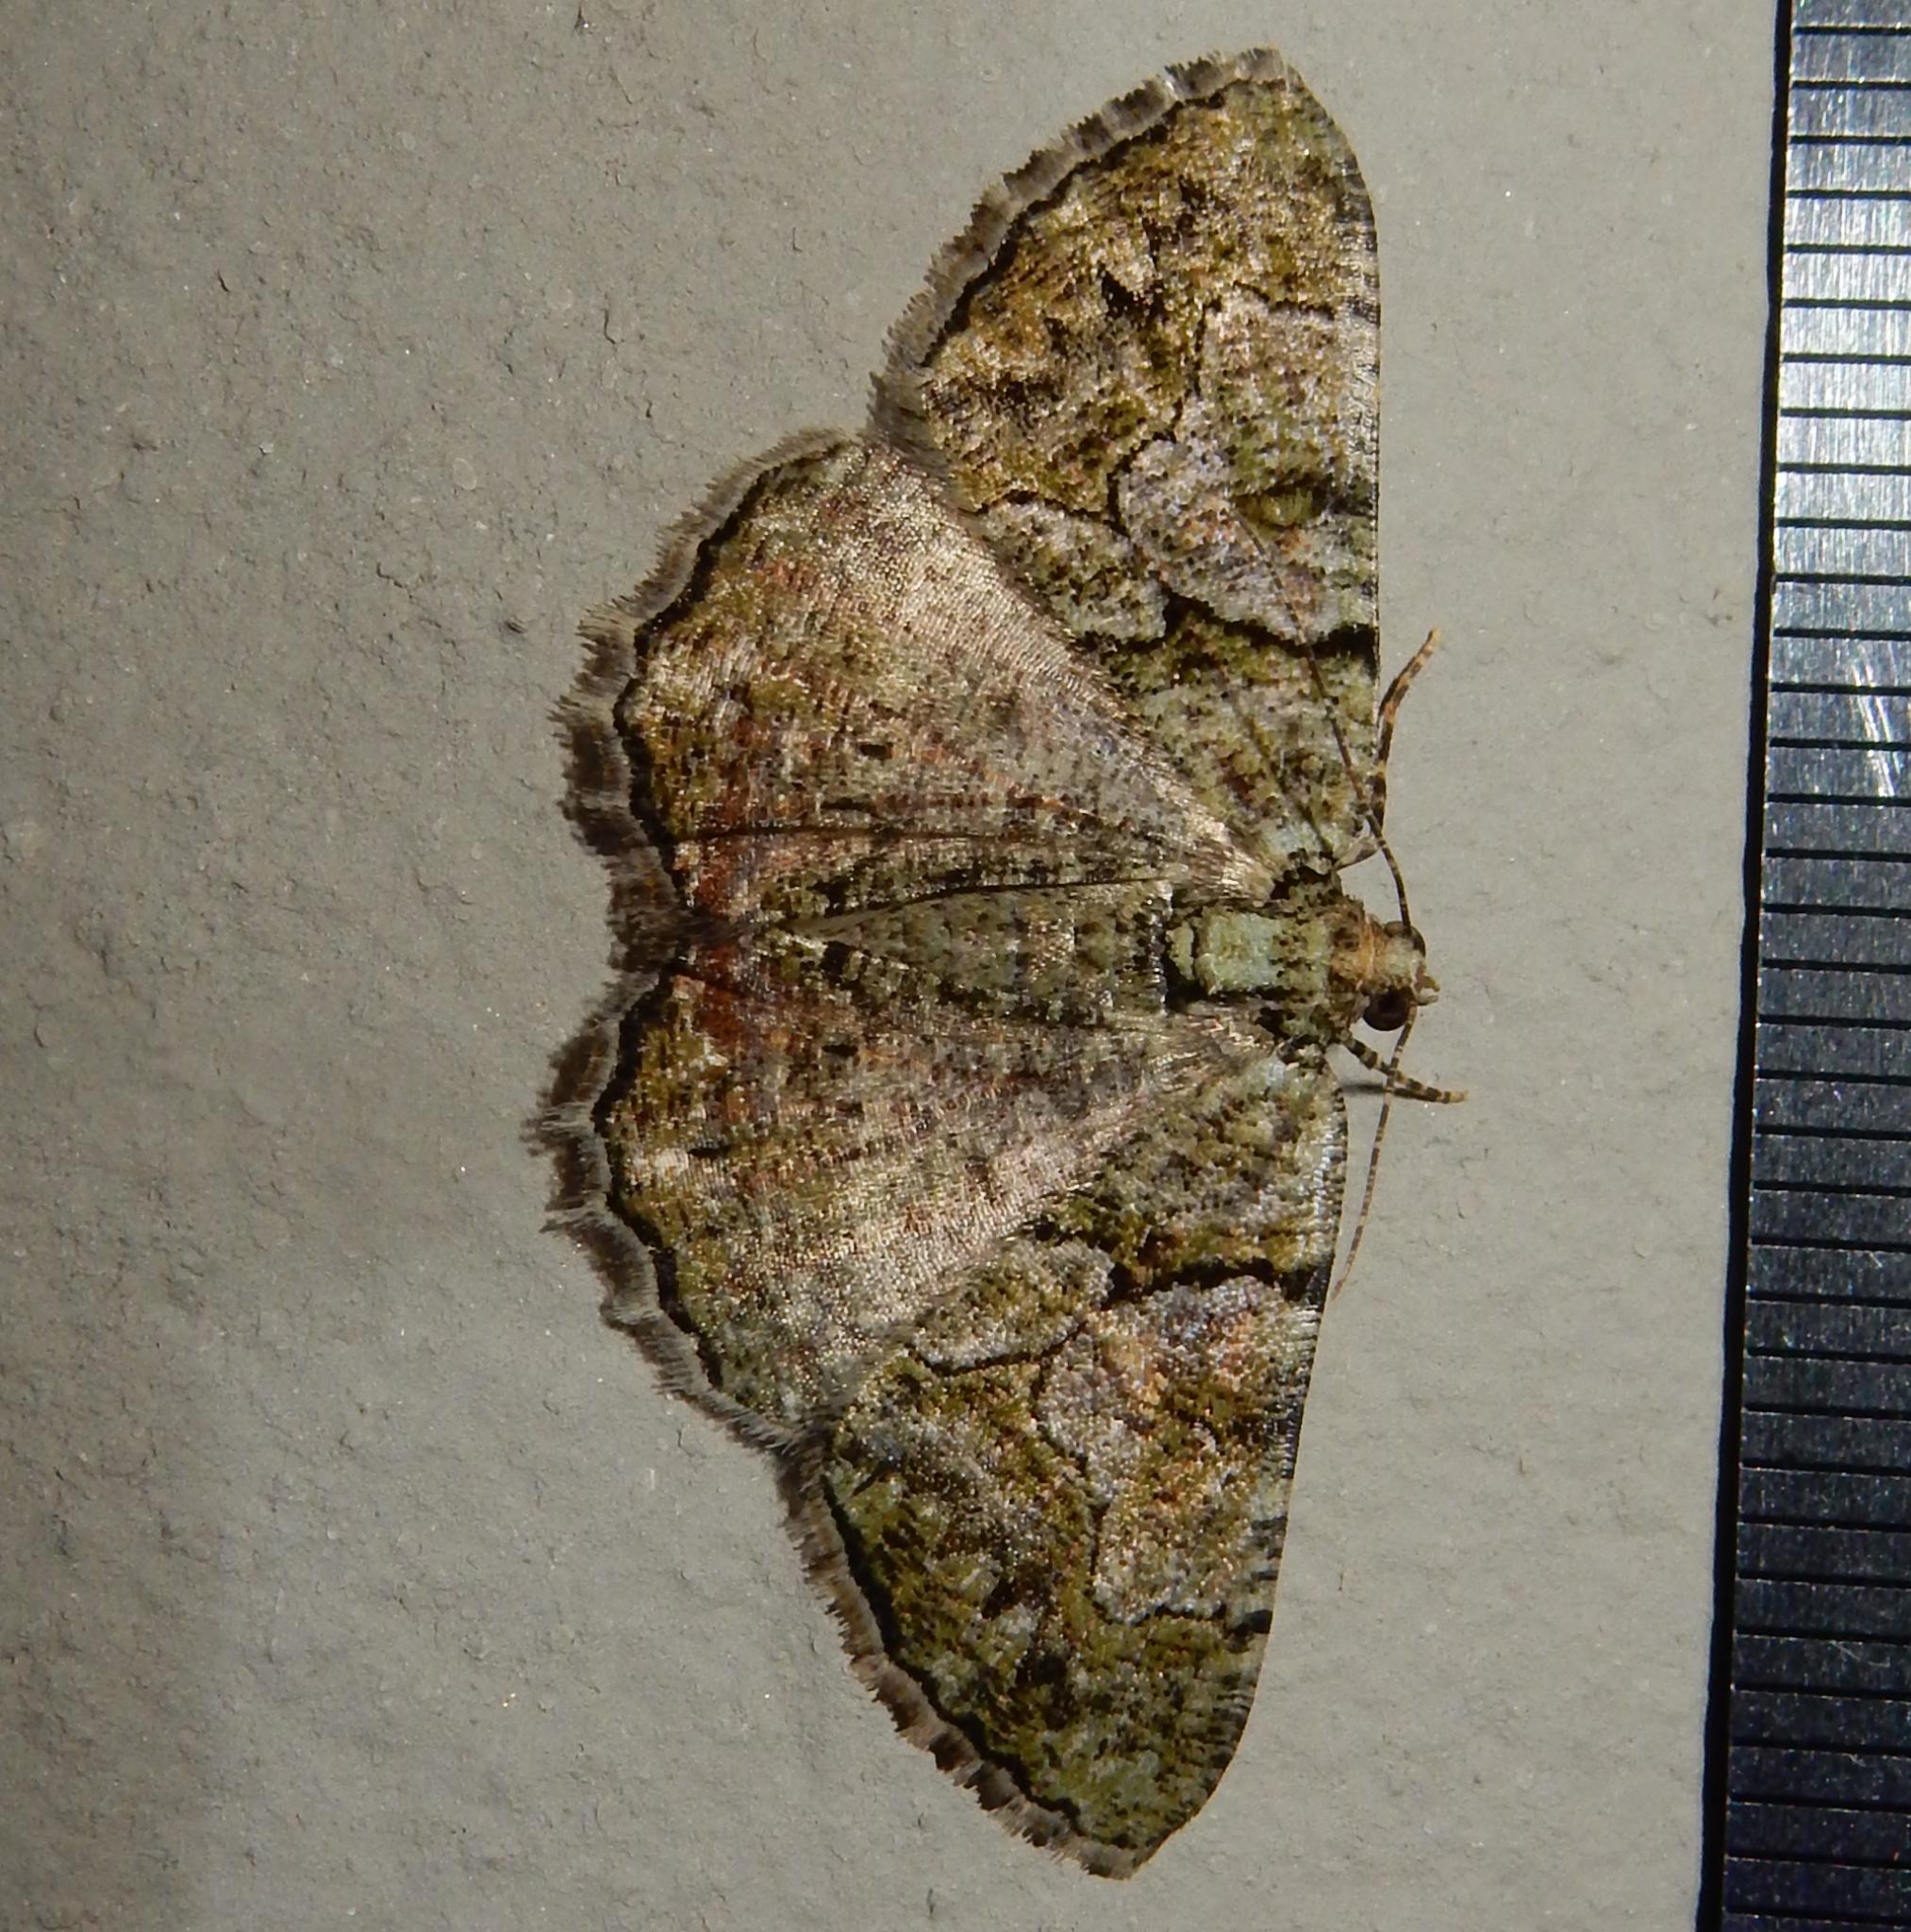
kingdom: Animalia
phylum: Arthropoda
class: Insecta
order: Lepidoptera
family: Geometridae
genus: Xylopteryx
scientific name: Xylopteryx prasinaria
